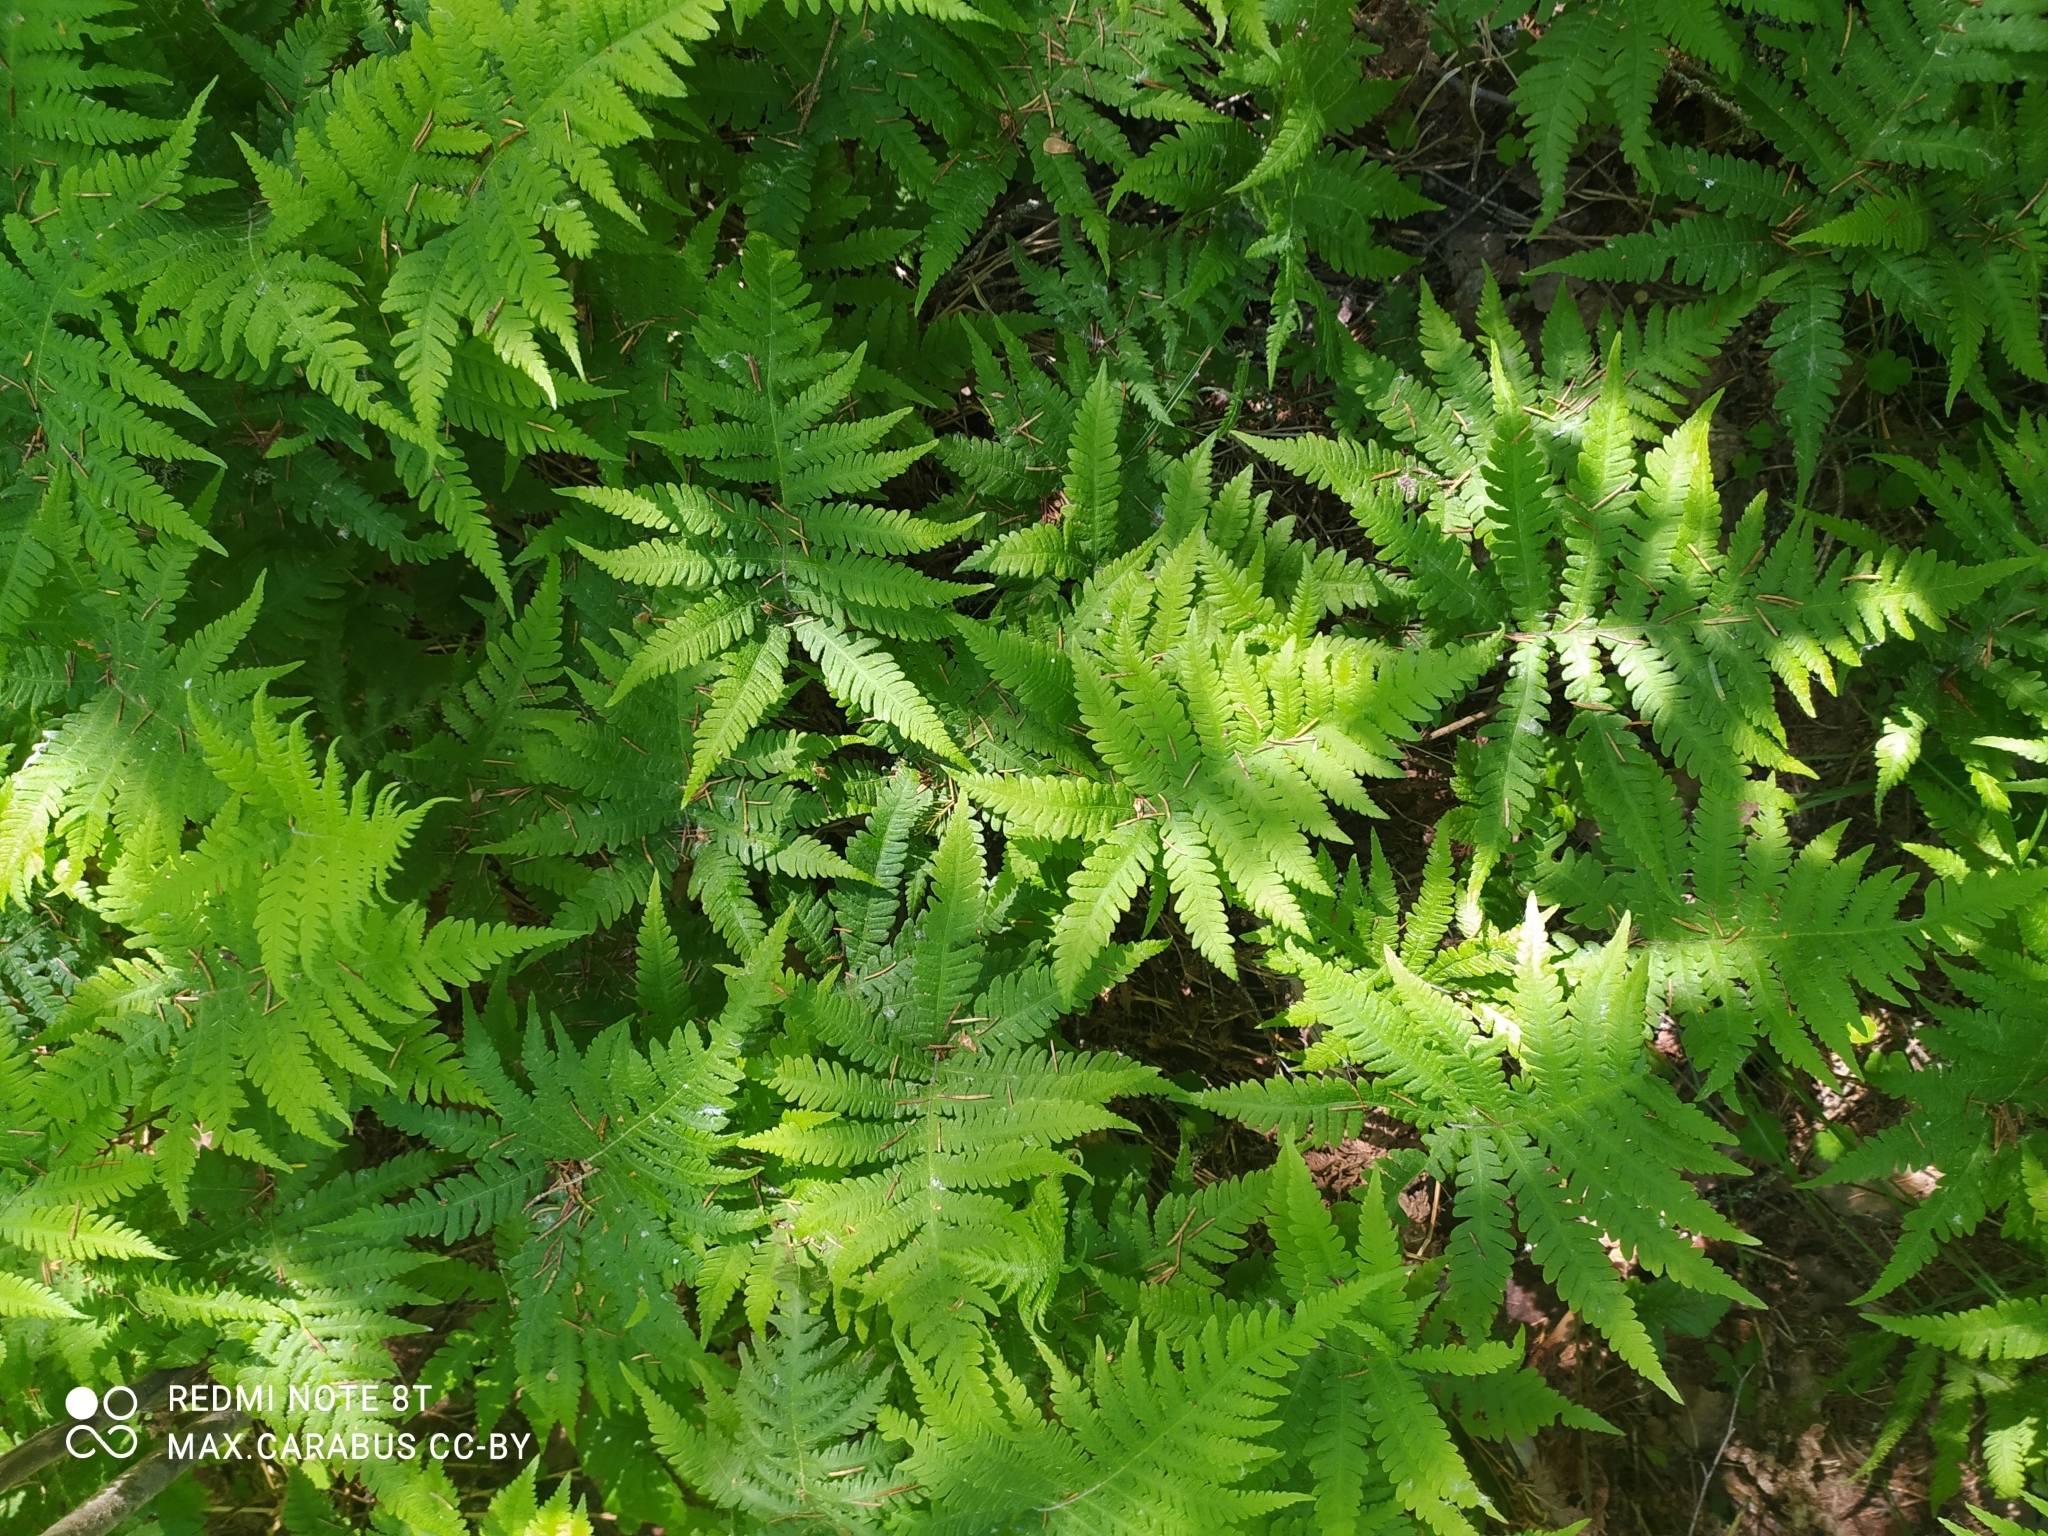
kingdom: Plantae
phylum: Tracheophyta
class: Polypodiopsida
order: Polypodiales
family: Thelypteridaceae
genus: Phegopteris
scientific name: Phegopteris connectilis
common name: Beech fern
